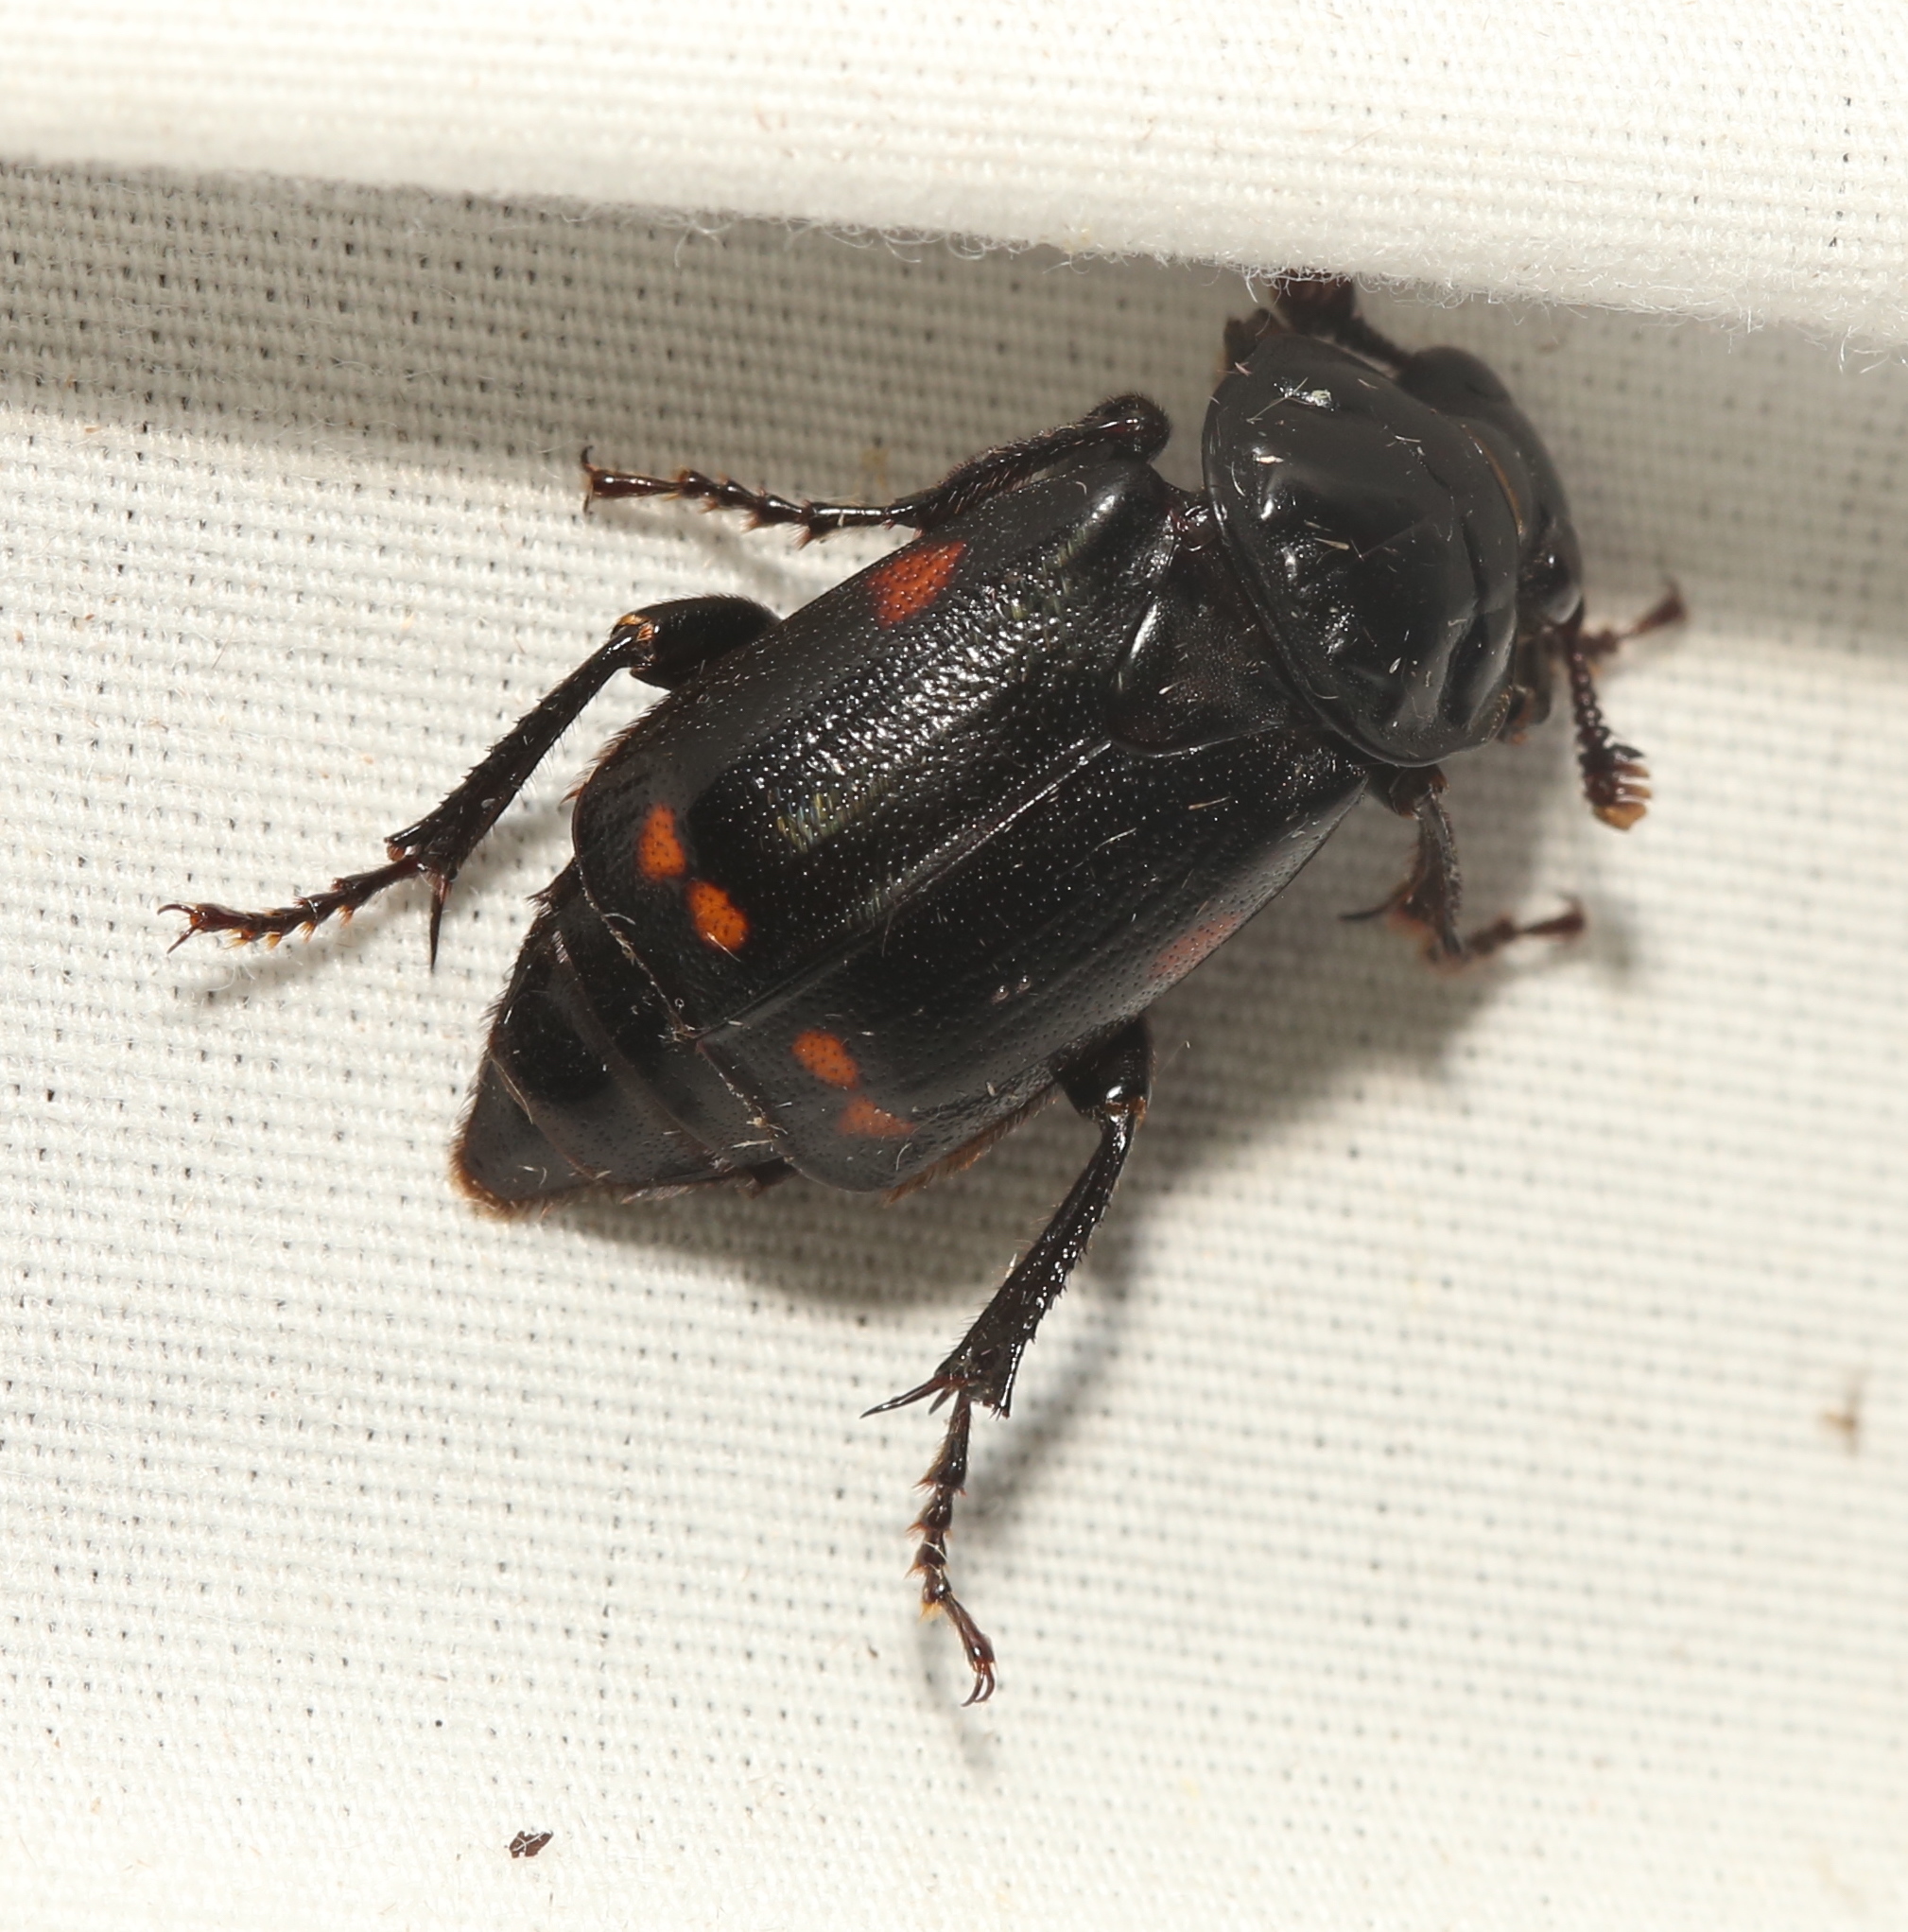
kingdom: Animalia
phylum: Arthropoda
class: Insecta
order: Coleoptera
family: Staphylinidae
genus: Nicrophorus
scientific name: Nicrophorus pustulatus
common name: Pustulated carrion beetle
